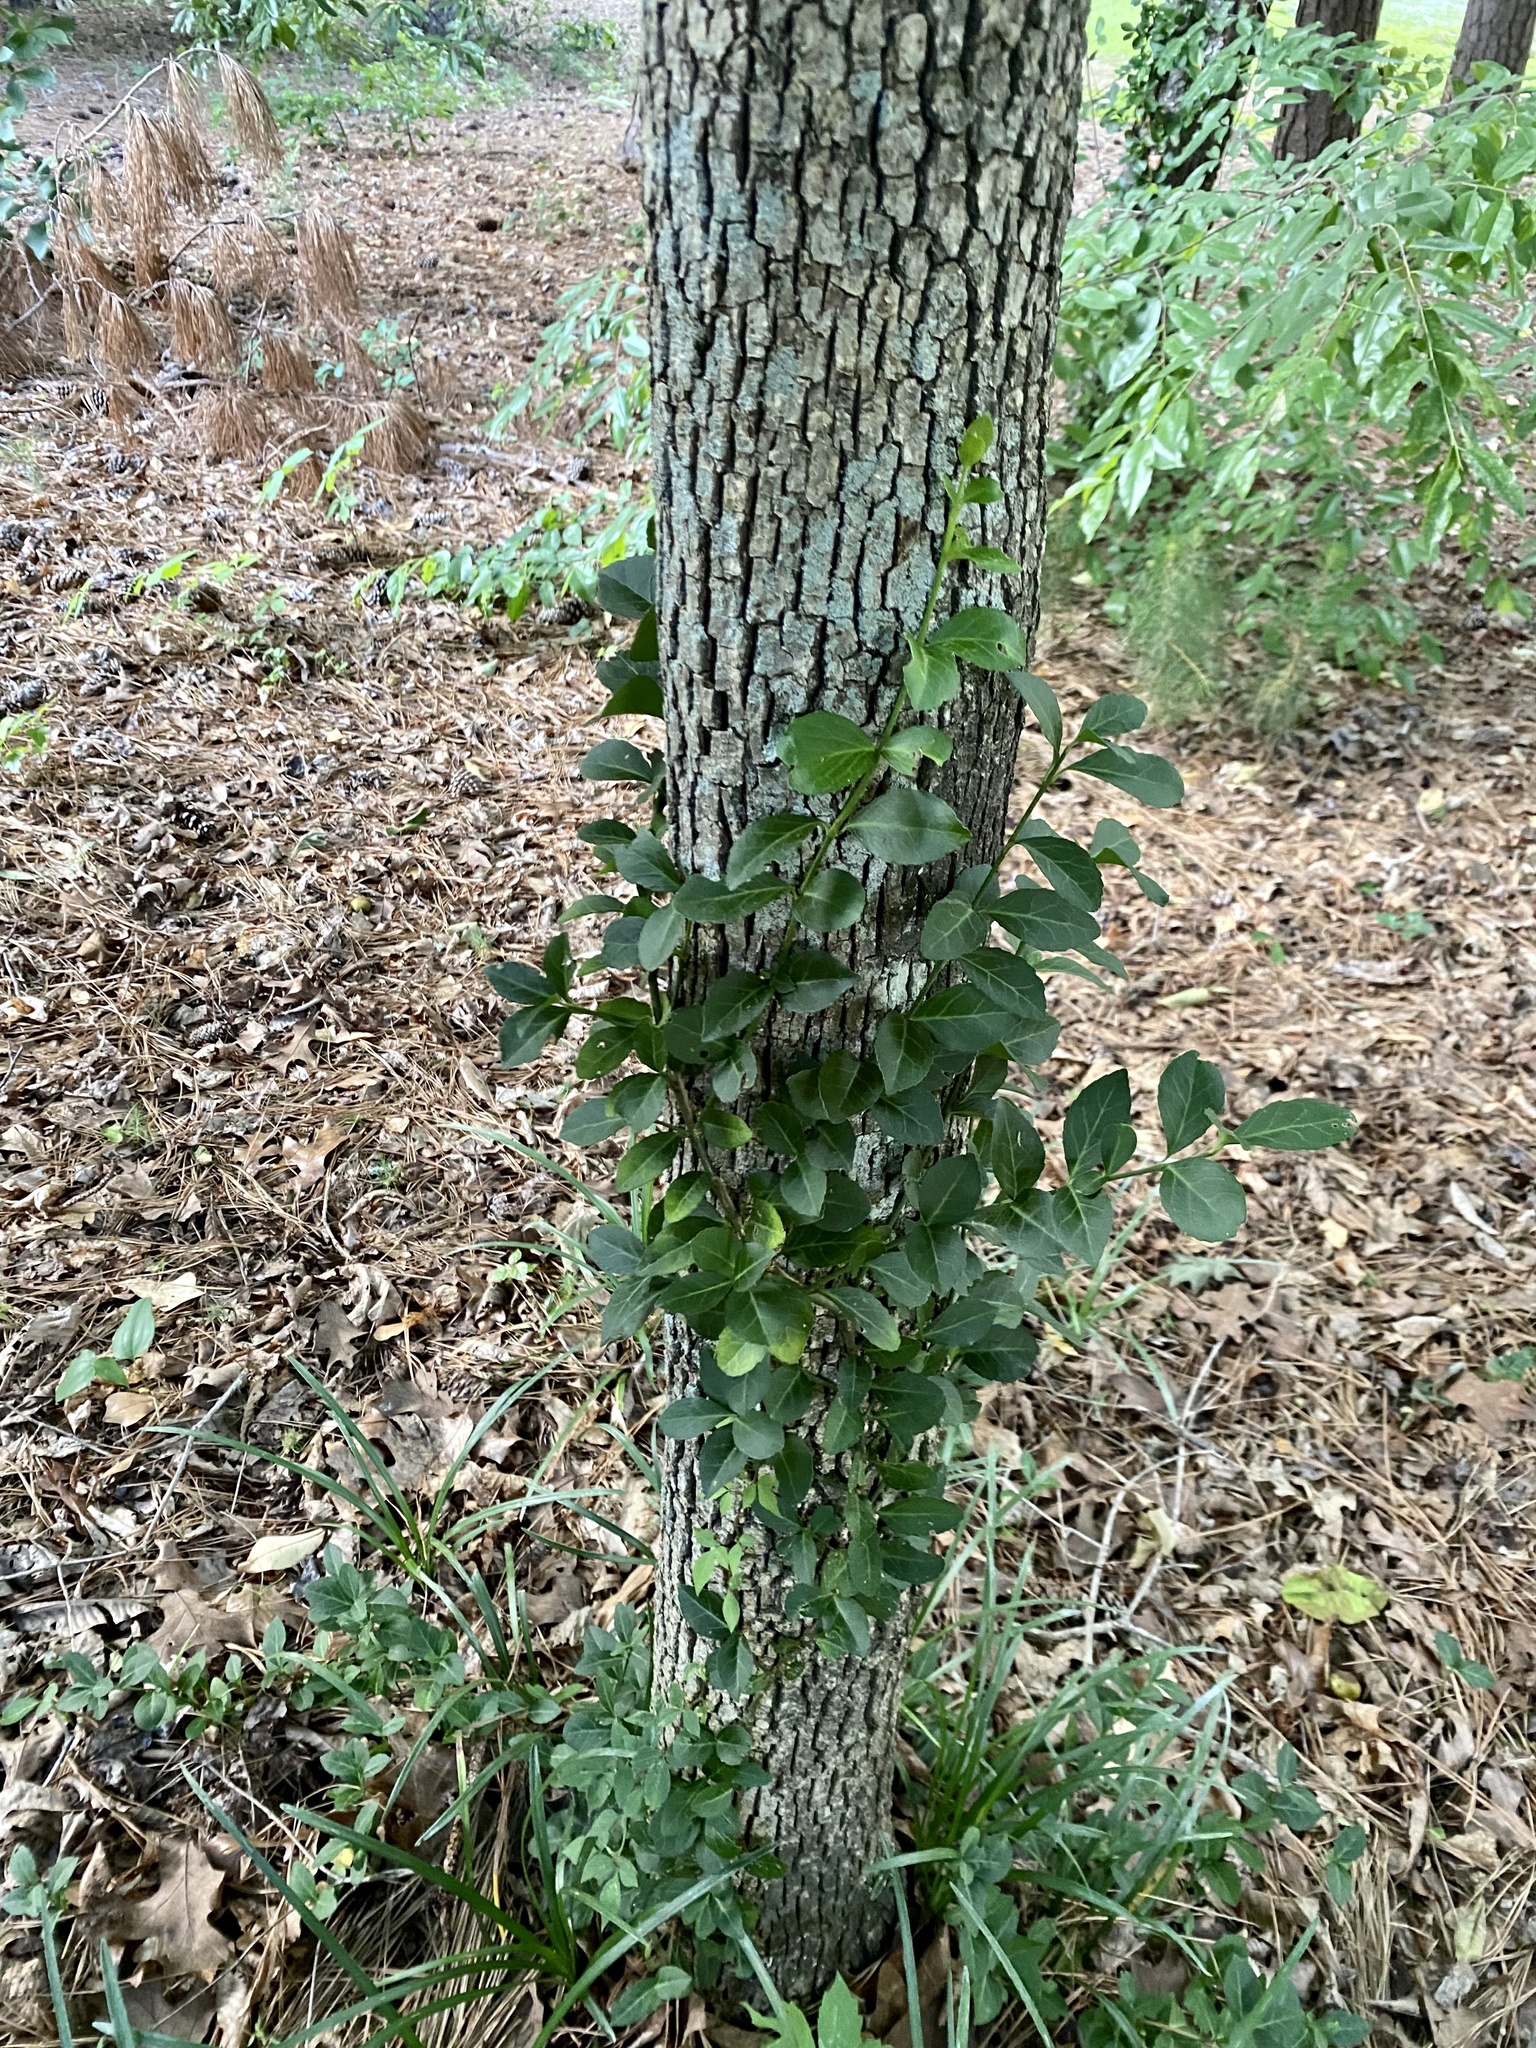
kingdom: Plantae
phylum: Tracheophyta
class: Magnoliopsida
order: Celastrales
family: Celastraceae
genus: Euonymus
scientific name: Euonymus fortunei
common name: Climbing euonymus
